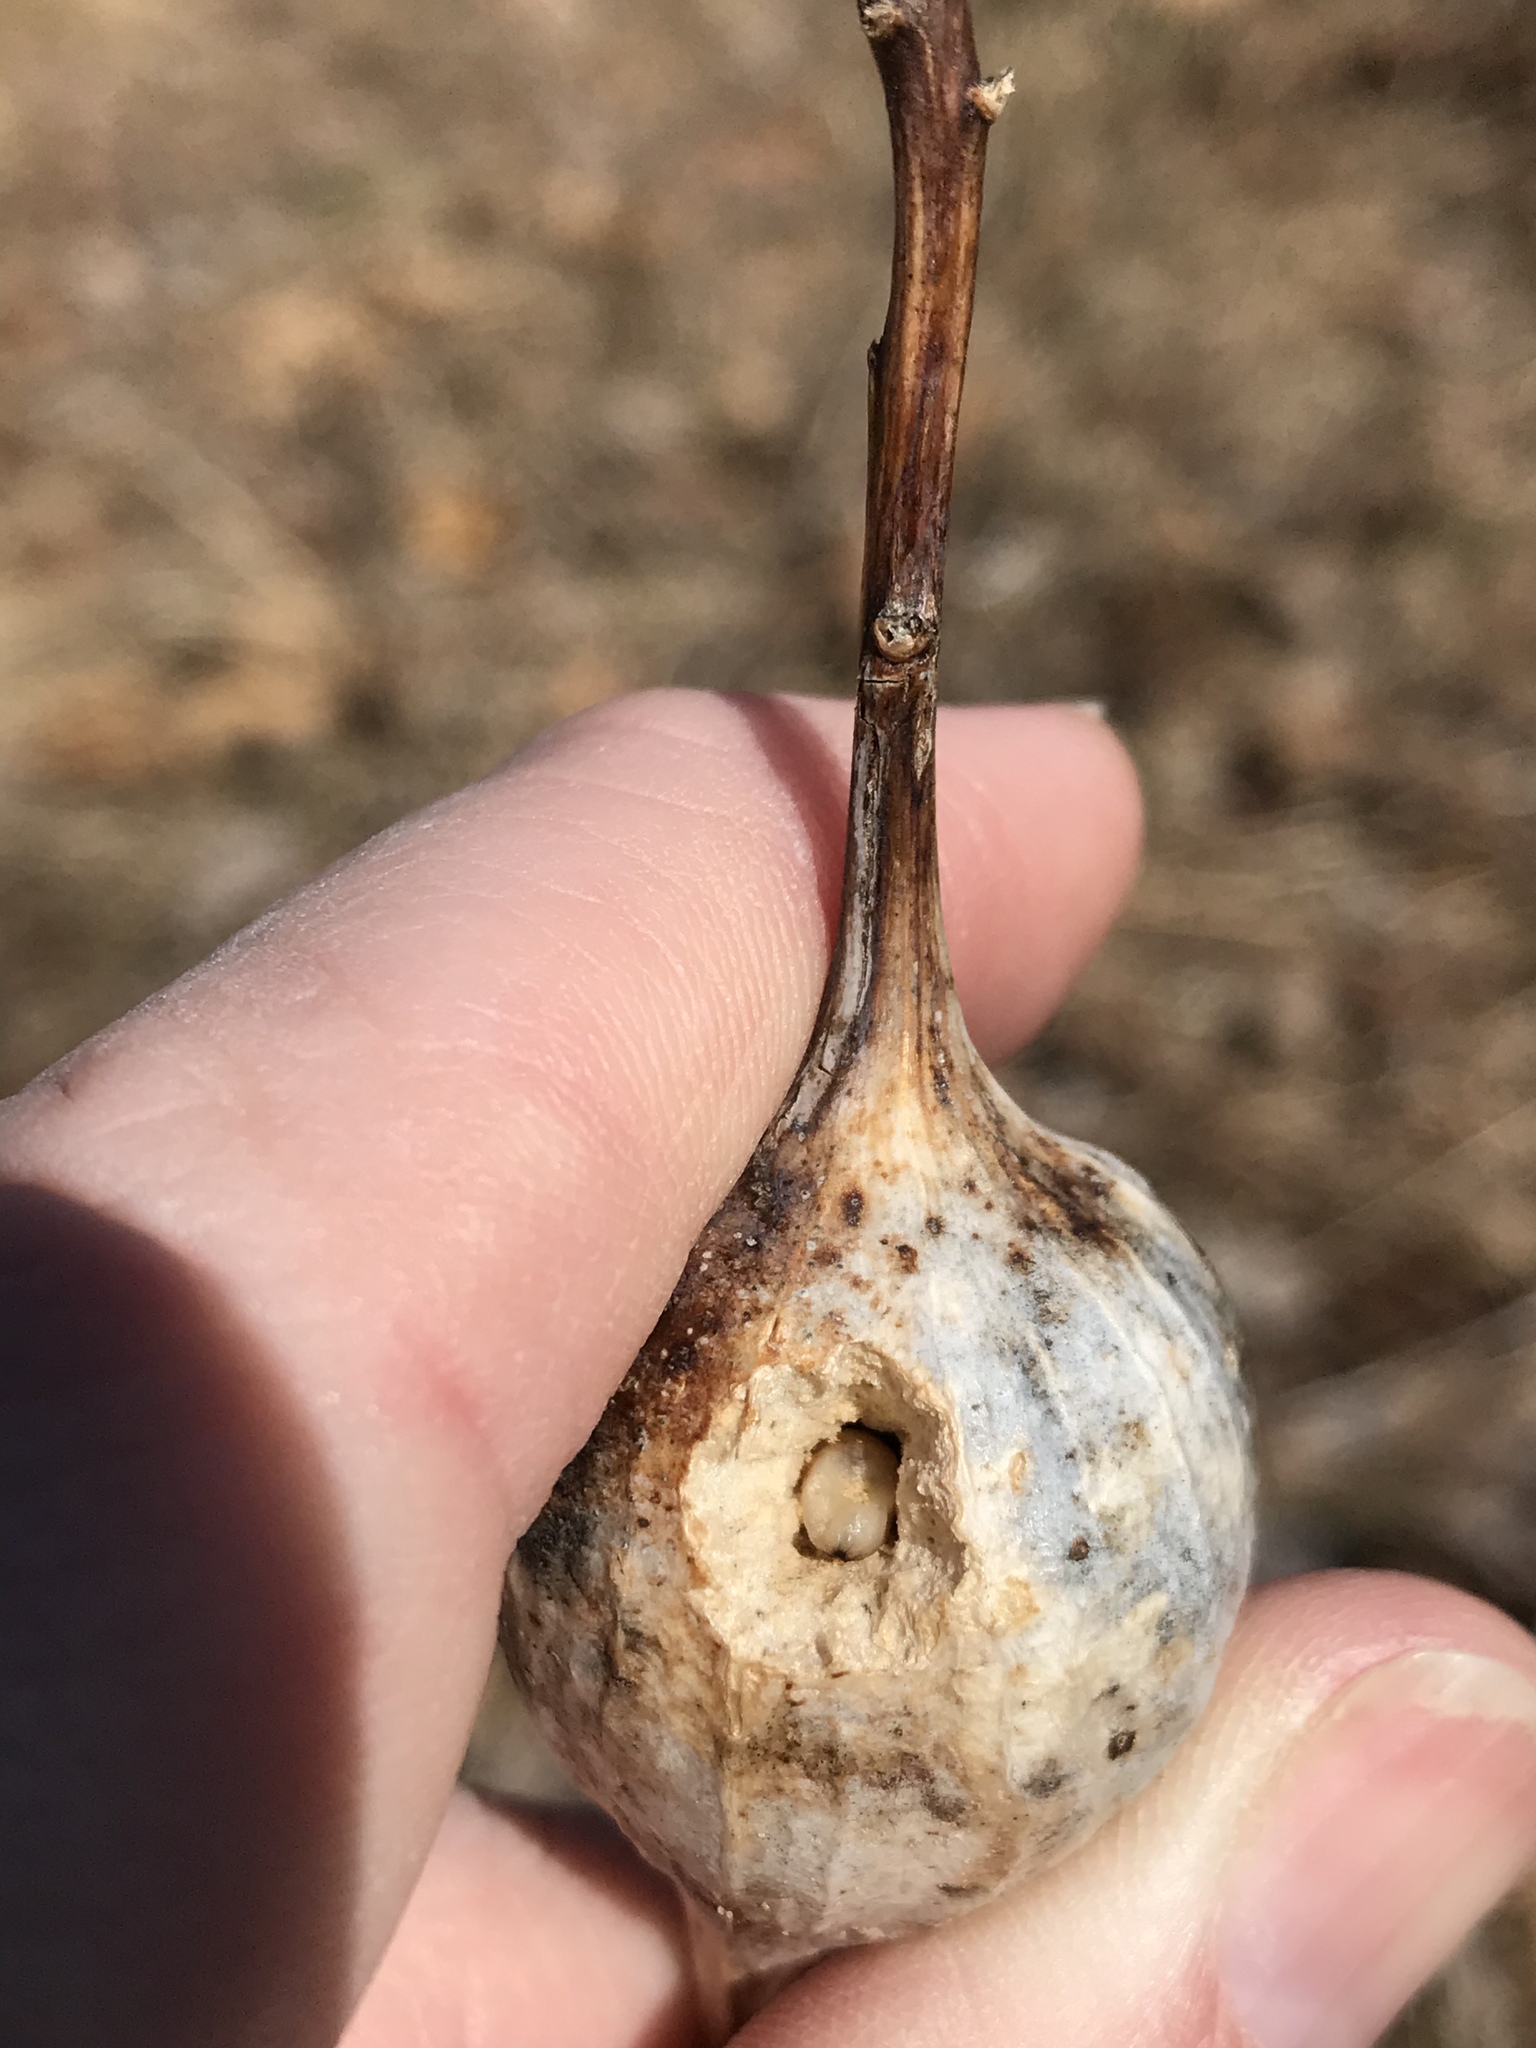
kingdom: Animalia
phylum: Arthropoda
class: Insecta
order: Diptera
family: Tephritidae
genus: Eurosta
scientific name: Eurosta solidaginis
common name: Goldenrod gall fly
